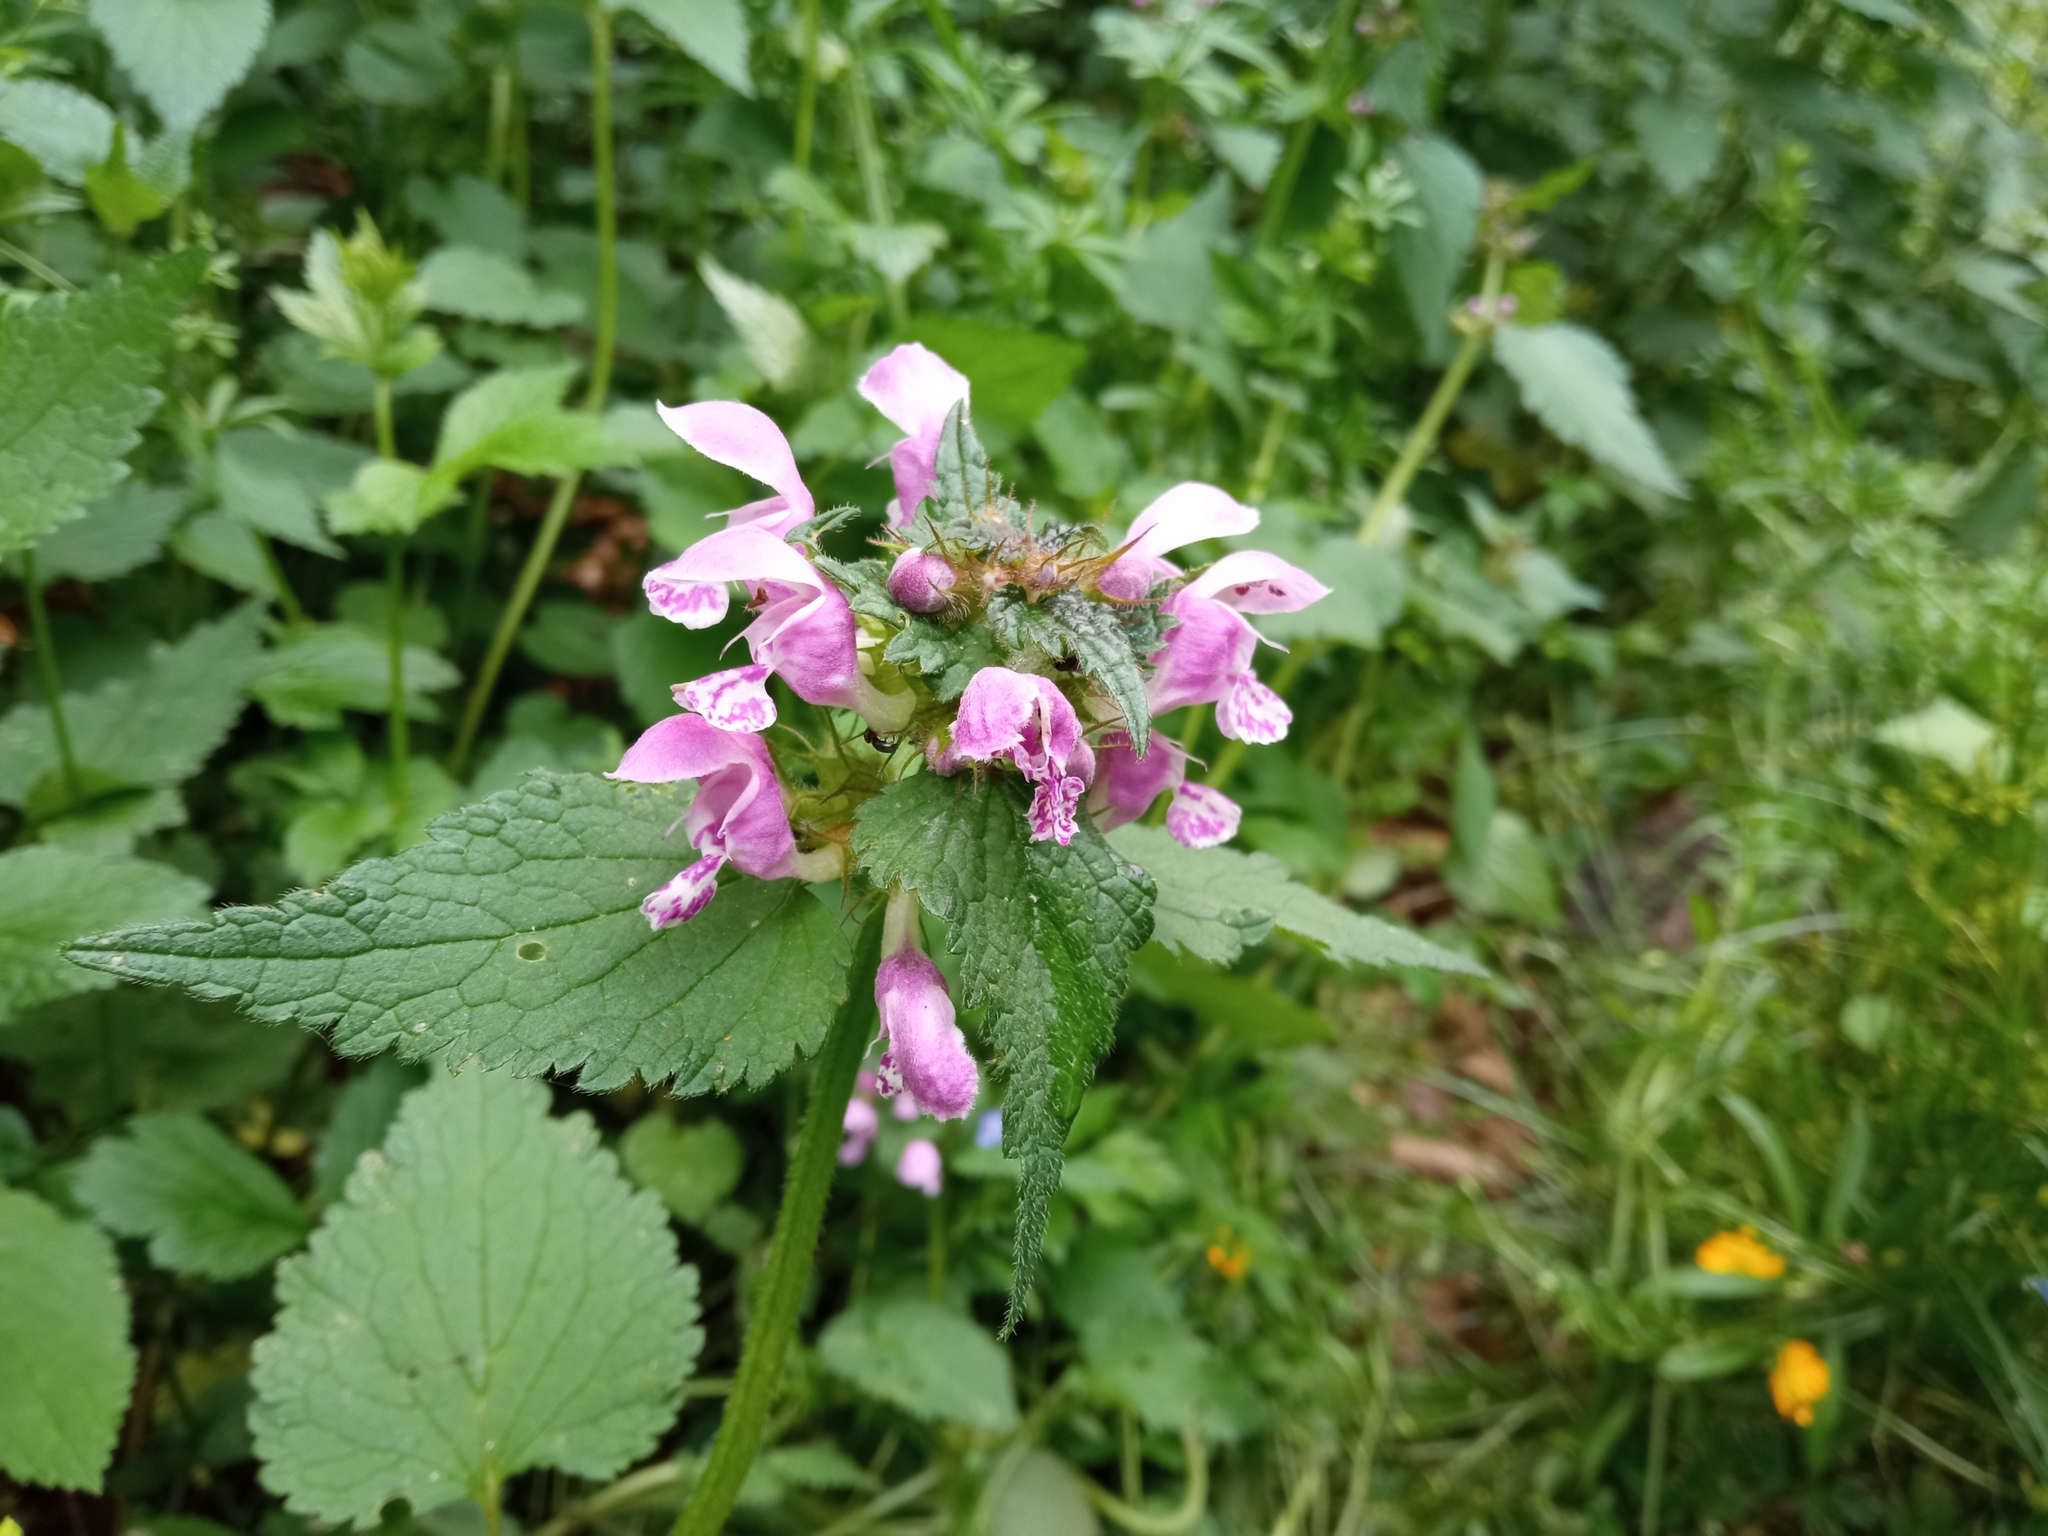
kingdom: Plantae
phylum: Tracheophyta
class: Magnoliopsida
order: Lamiales
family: Lamiaceae
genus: Lamium
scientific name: Lamium maculatum
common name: Spotted dead-nettle
